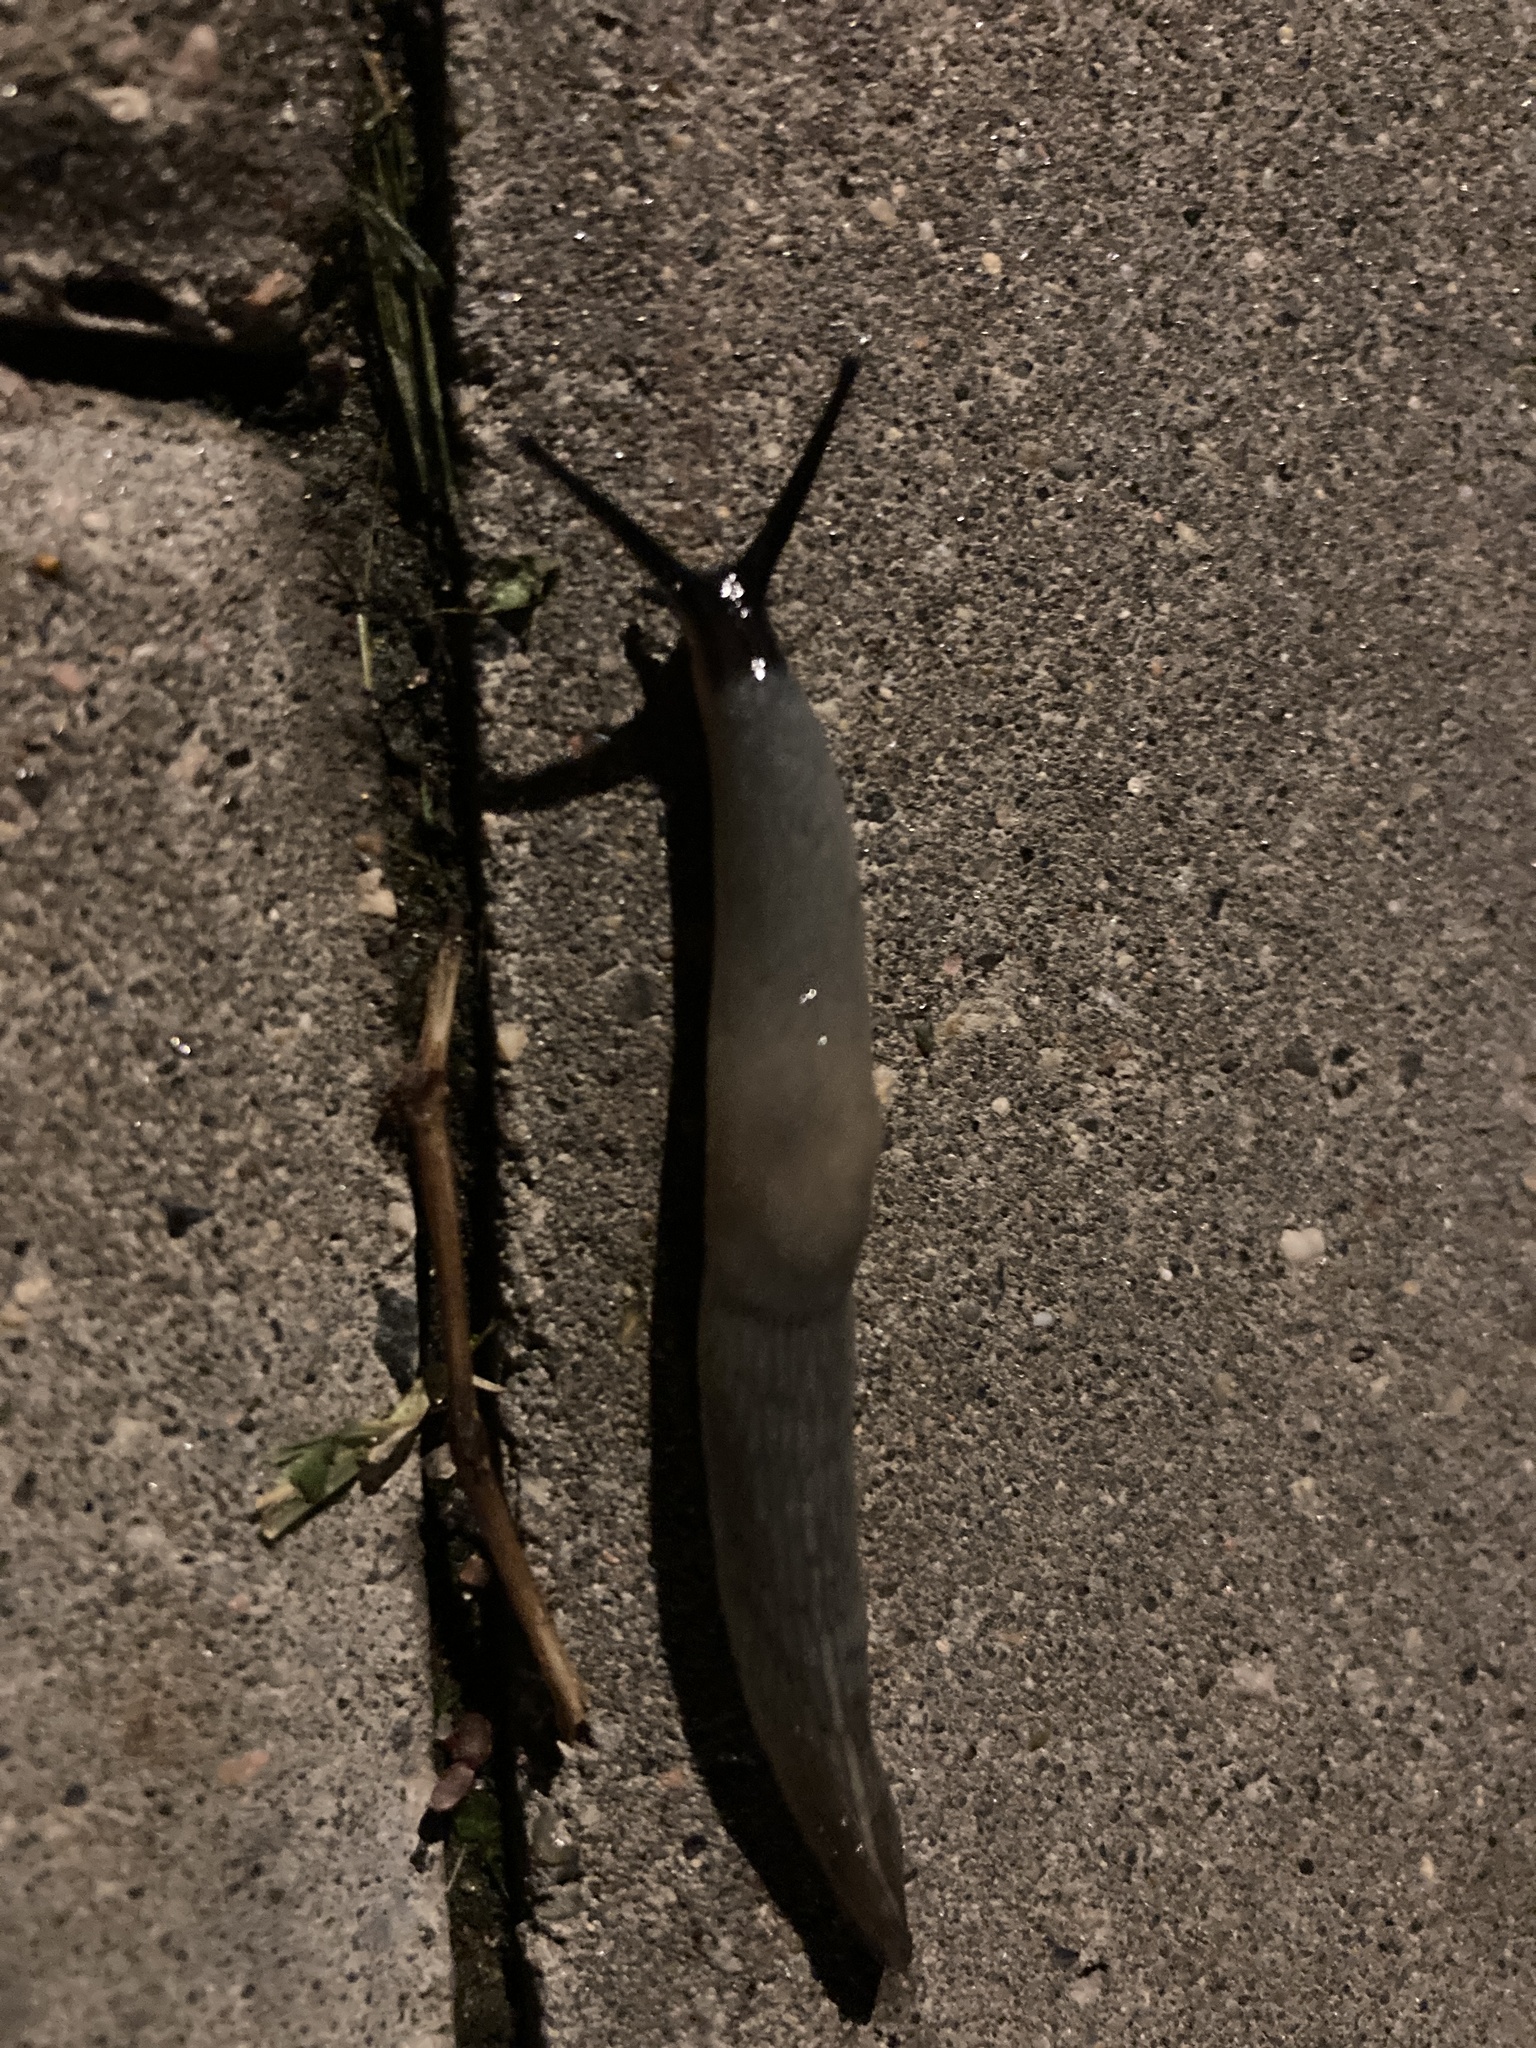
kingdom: Animalia
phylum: Mollusca
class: Gastropoda
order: Stylommatophora
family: Agriolimacidae
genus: Krynickillus
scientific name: Krynickillus melanocephalus
